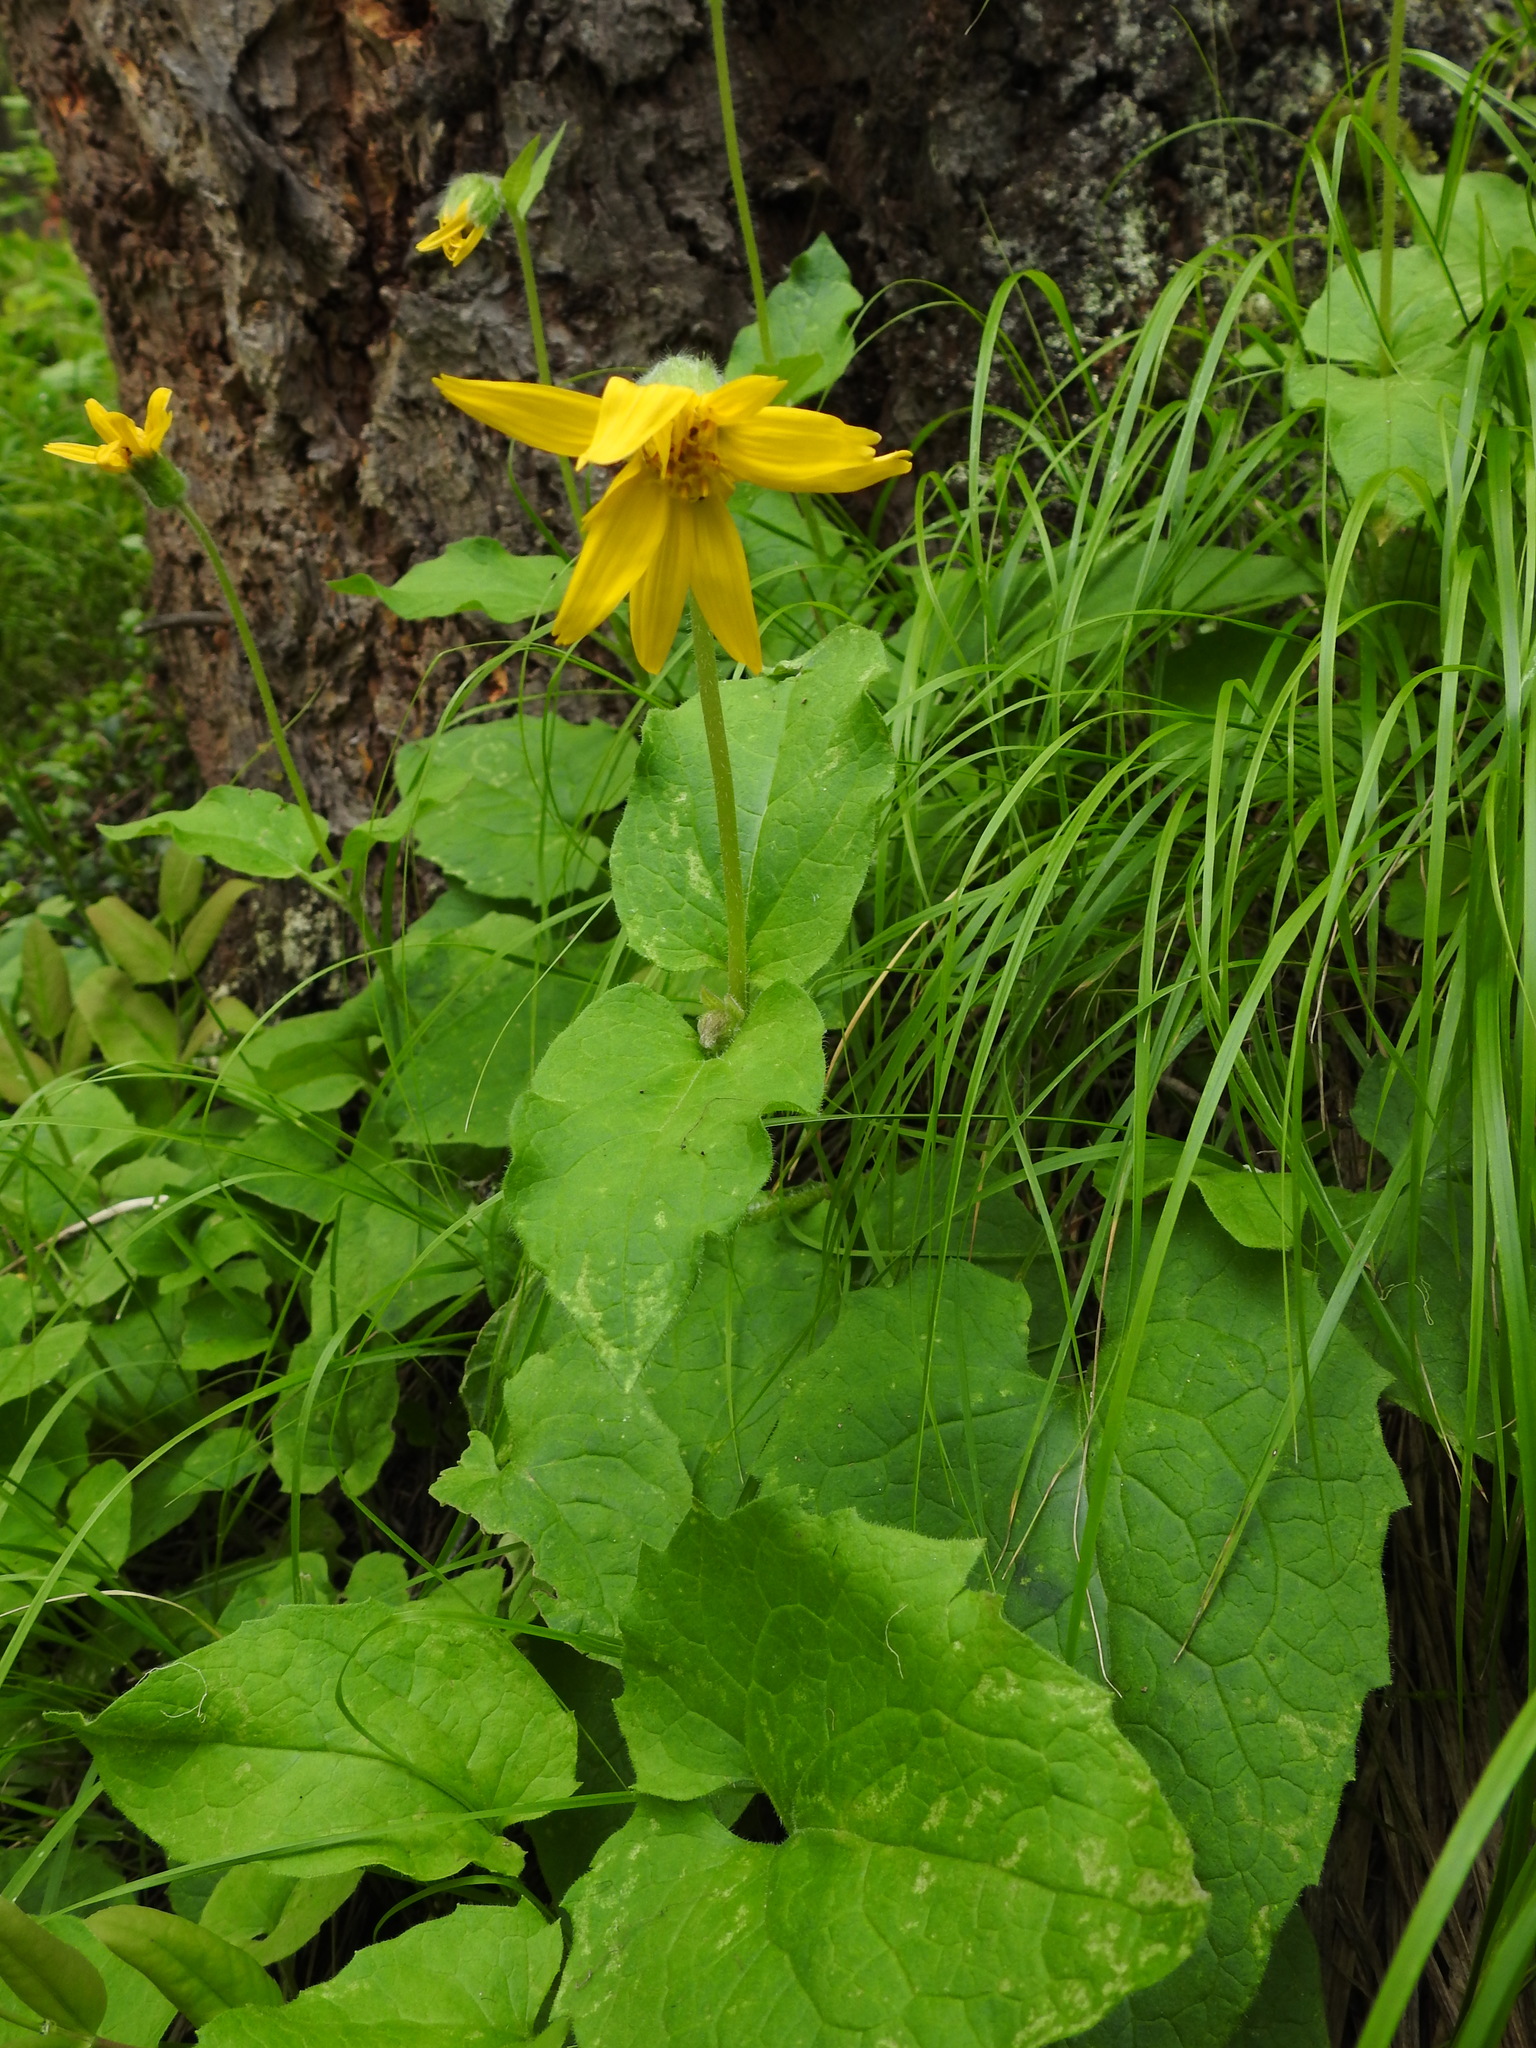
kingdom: Plantae
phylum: Tracheophyta
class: Magnoliopsida
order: Asterales
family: Asteraceae
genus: Arnica
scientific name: Arnica cordifolia
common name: Heart-leaf arnica
